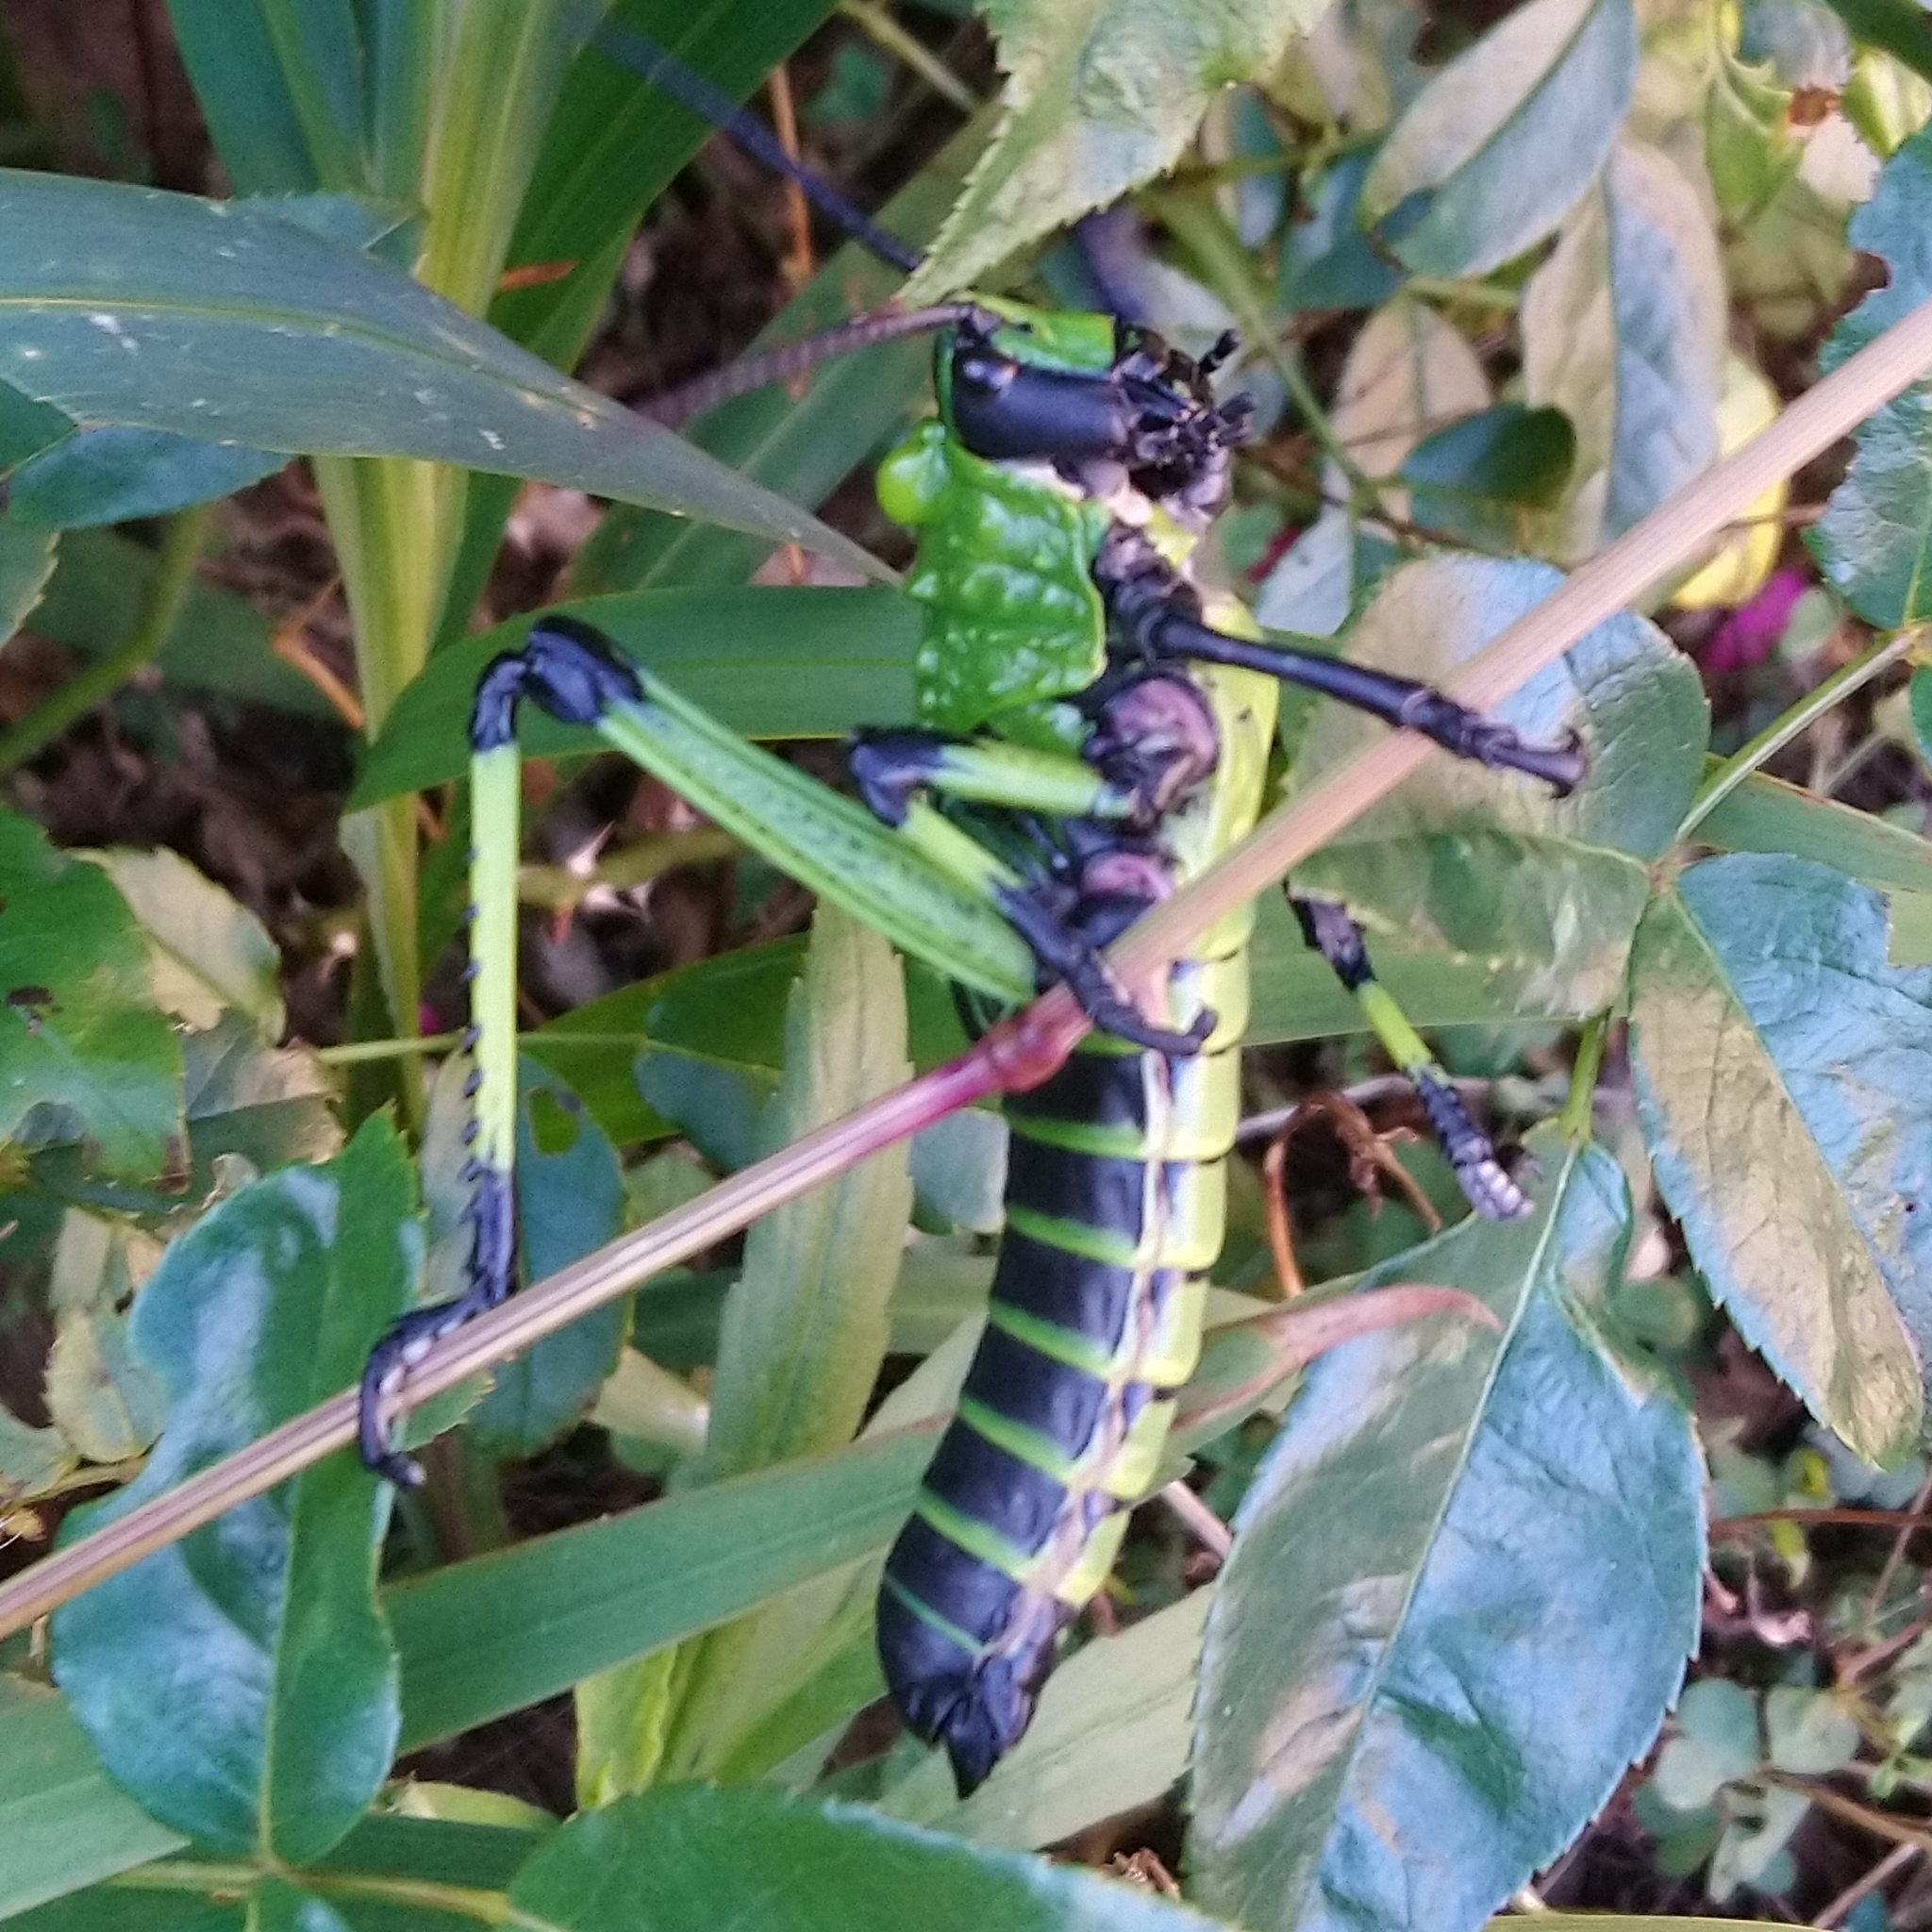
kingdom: Animalia
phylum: Arthropoda
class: Insecta
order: Orthoptera
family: Pyrgomorphidae
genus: Phymateus
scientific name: Phymateus leprosus
